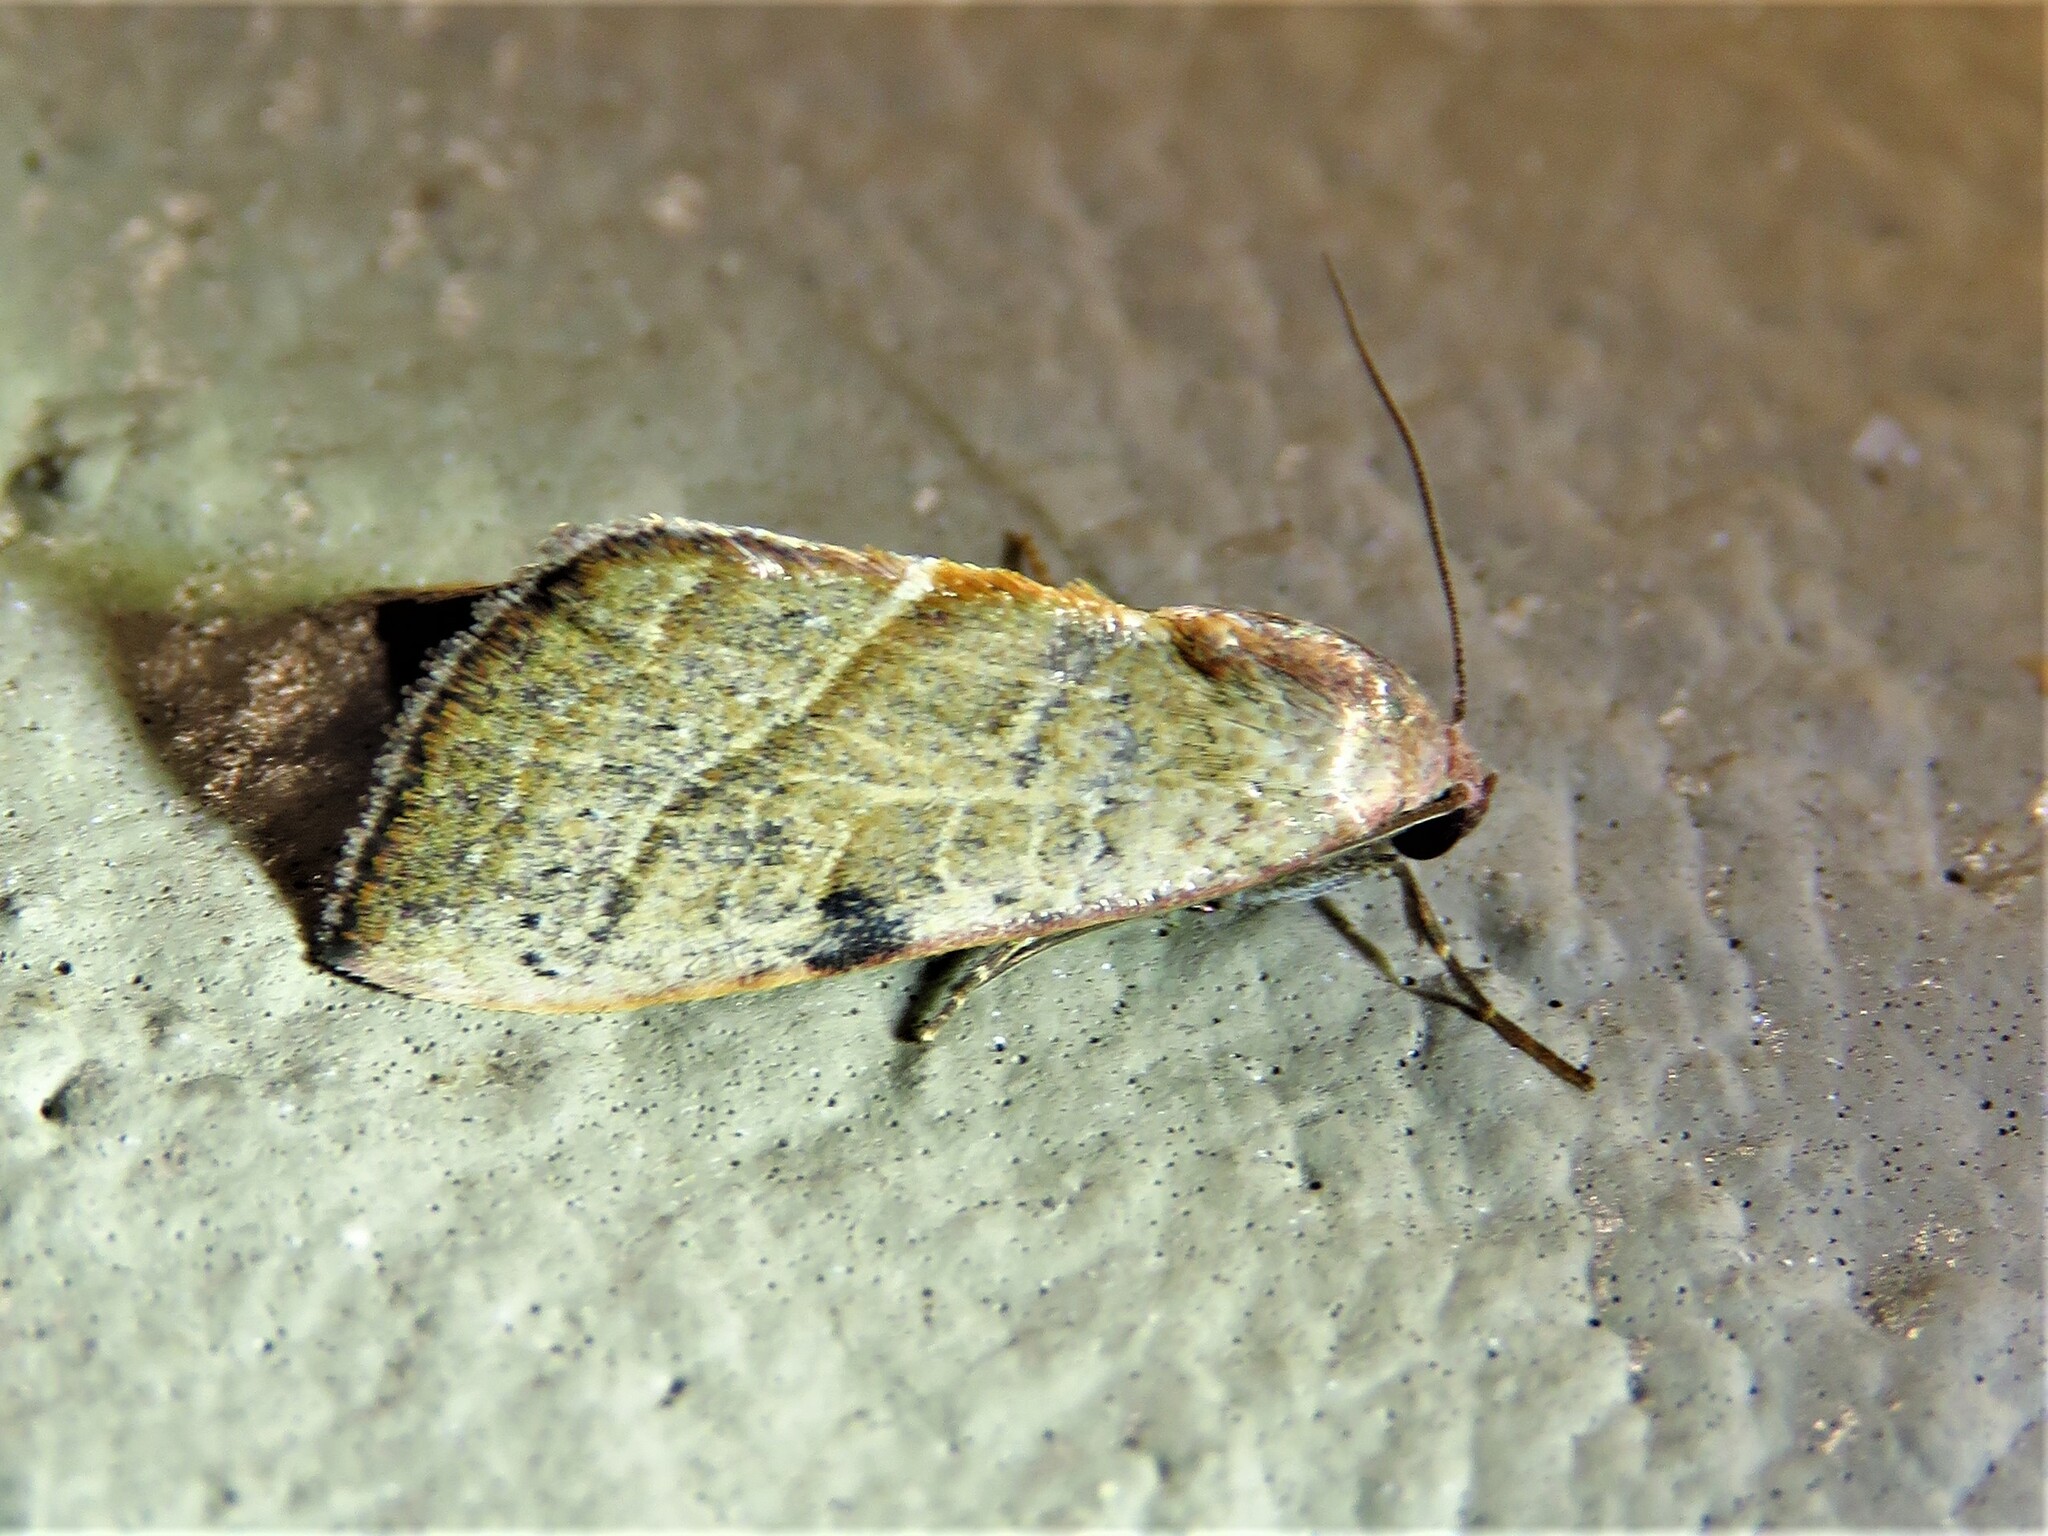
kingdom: Animalia
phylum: Arthropoda
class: Insecta
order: Lepidoptera
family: Noctuidae
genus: Galgula
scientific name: Galgula partita
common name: Wedgeling
